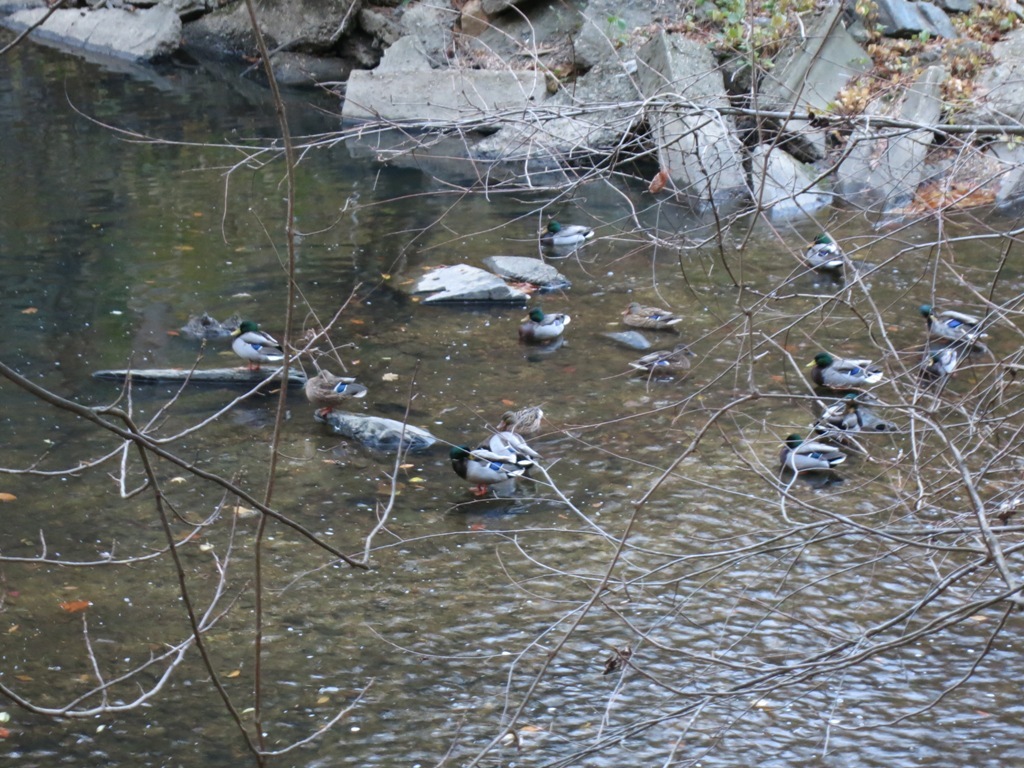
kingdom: Animalia
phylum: Chordata
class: Aves
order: Anseriformes
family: Anatidae
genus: Anas
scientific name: Anas platyrhynchos
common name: Mallard
